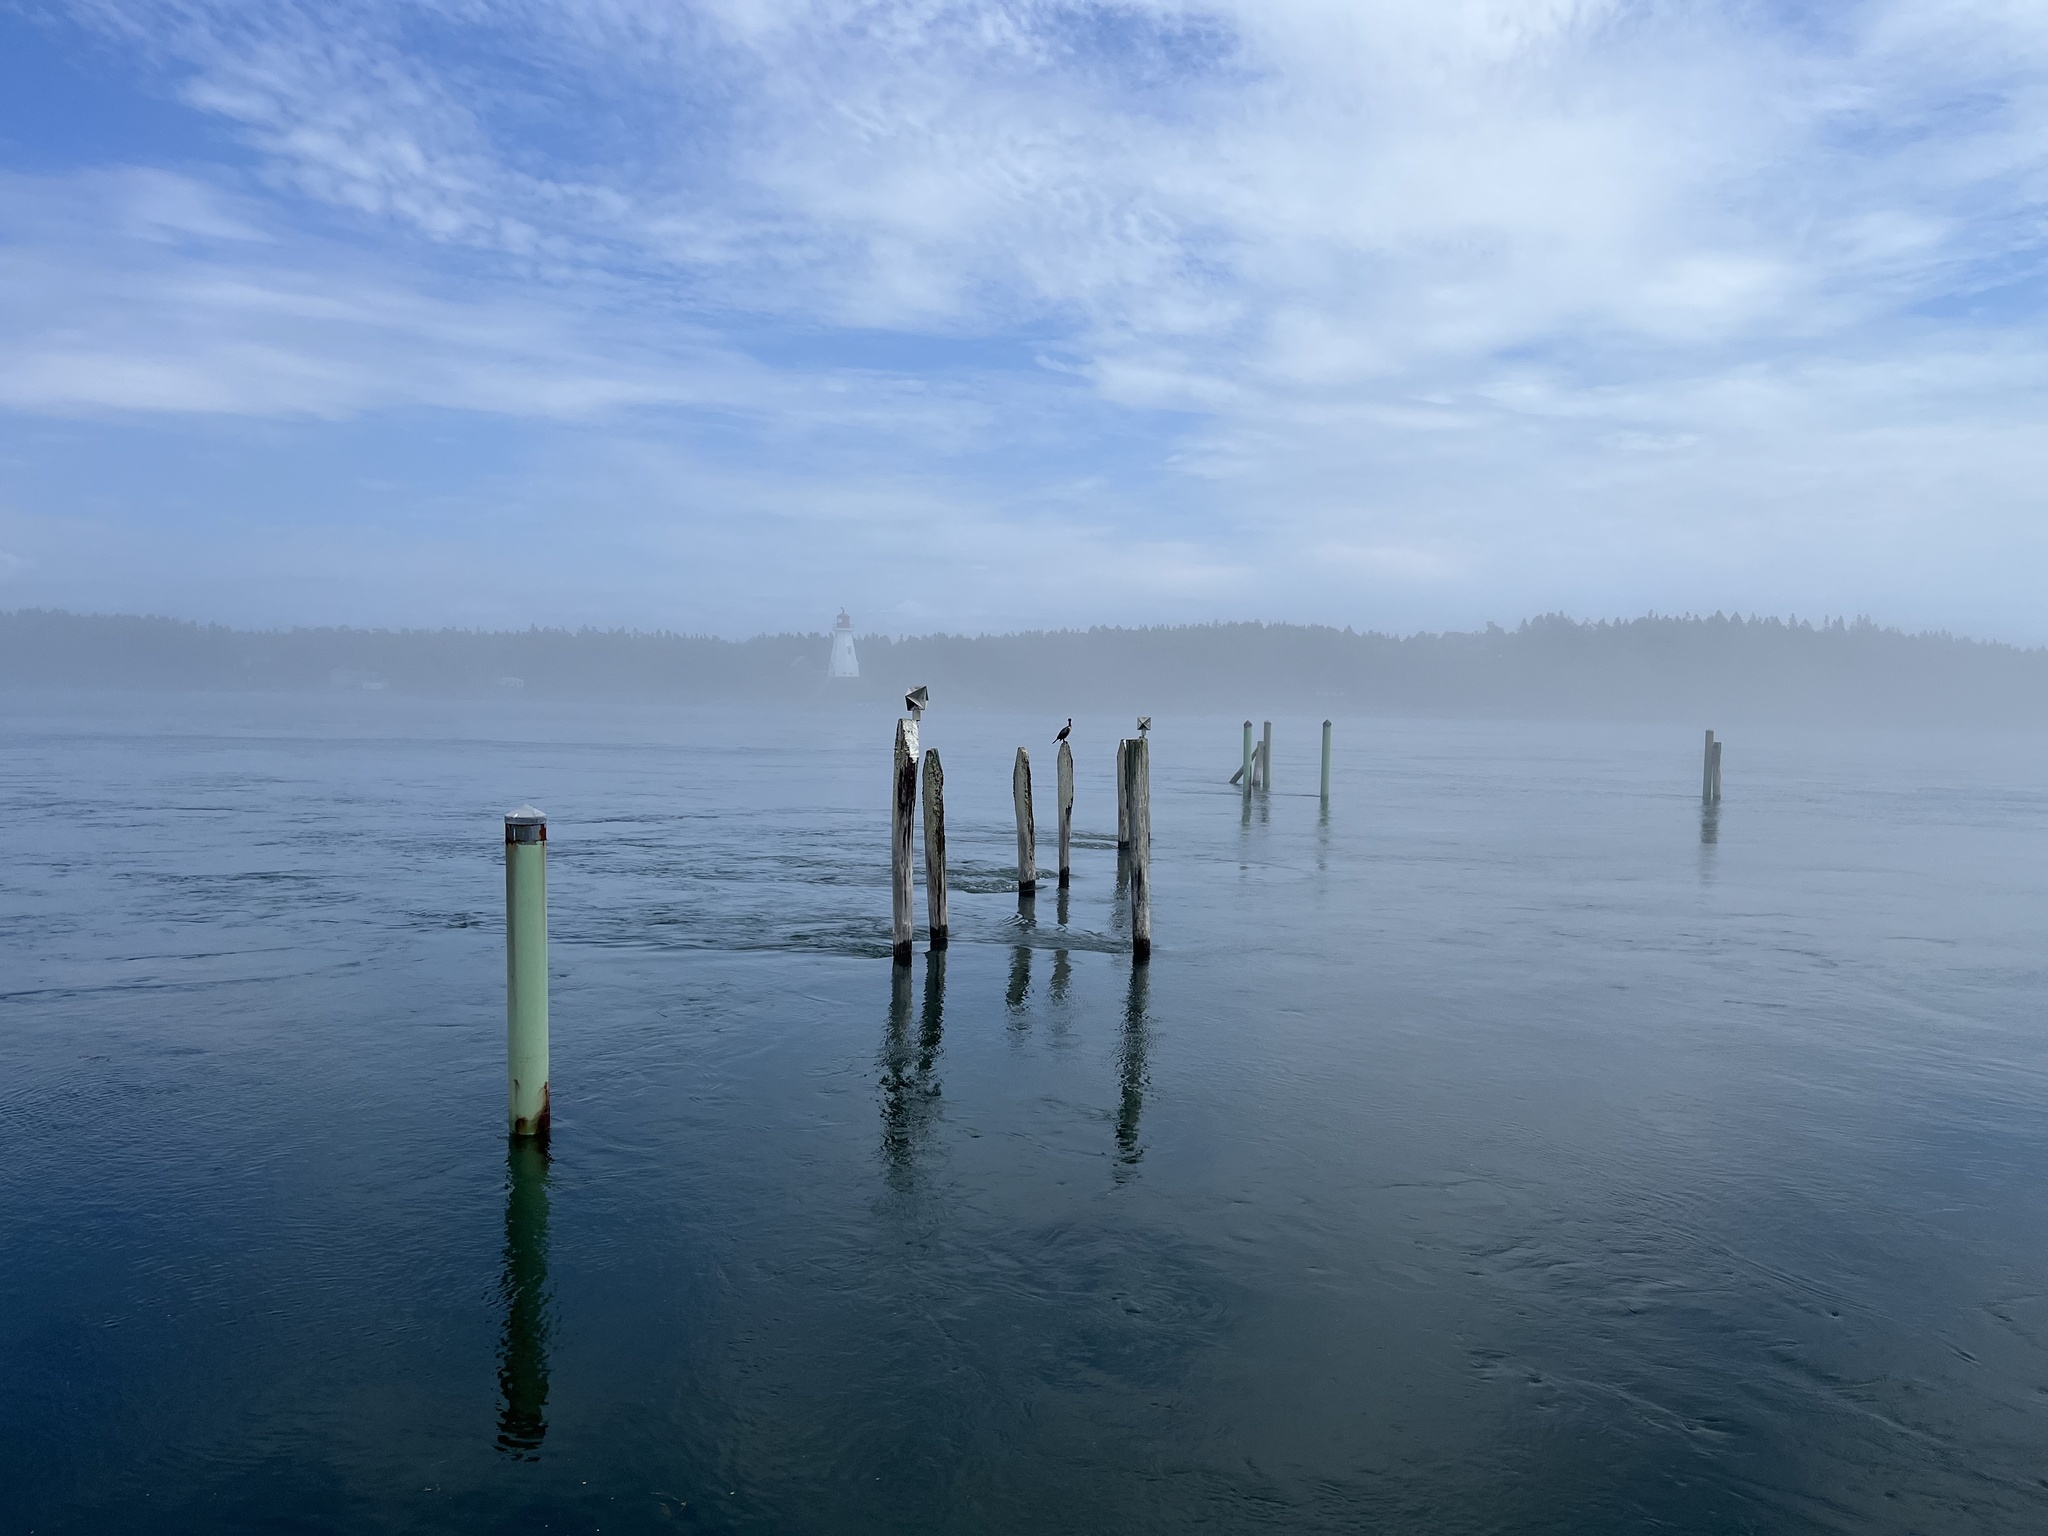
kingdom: Animalia
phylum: Chordata
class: Aves
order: Suliformes
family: Phalacrocoracidae
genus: Phalacrocorax
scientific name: Phalacrocorax auritus
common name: Double-crested cormorant
